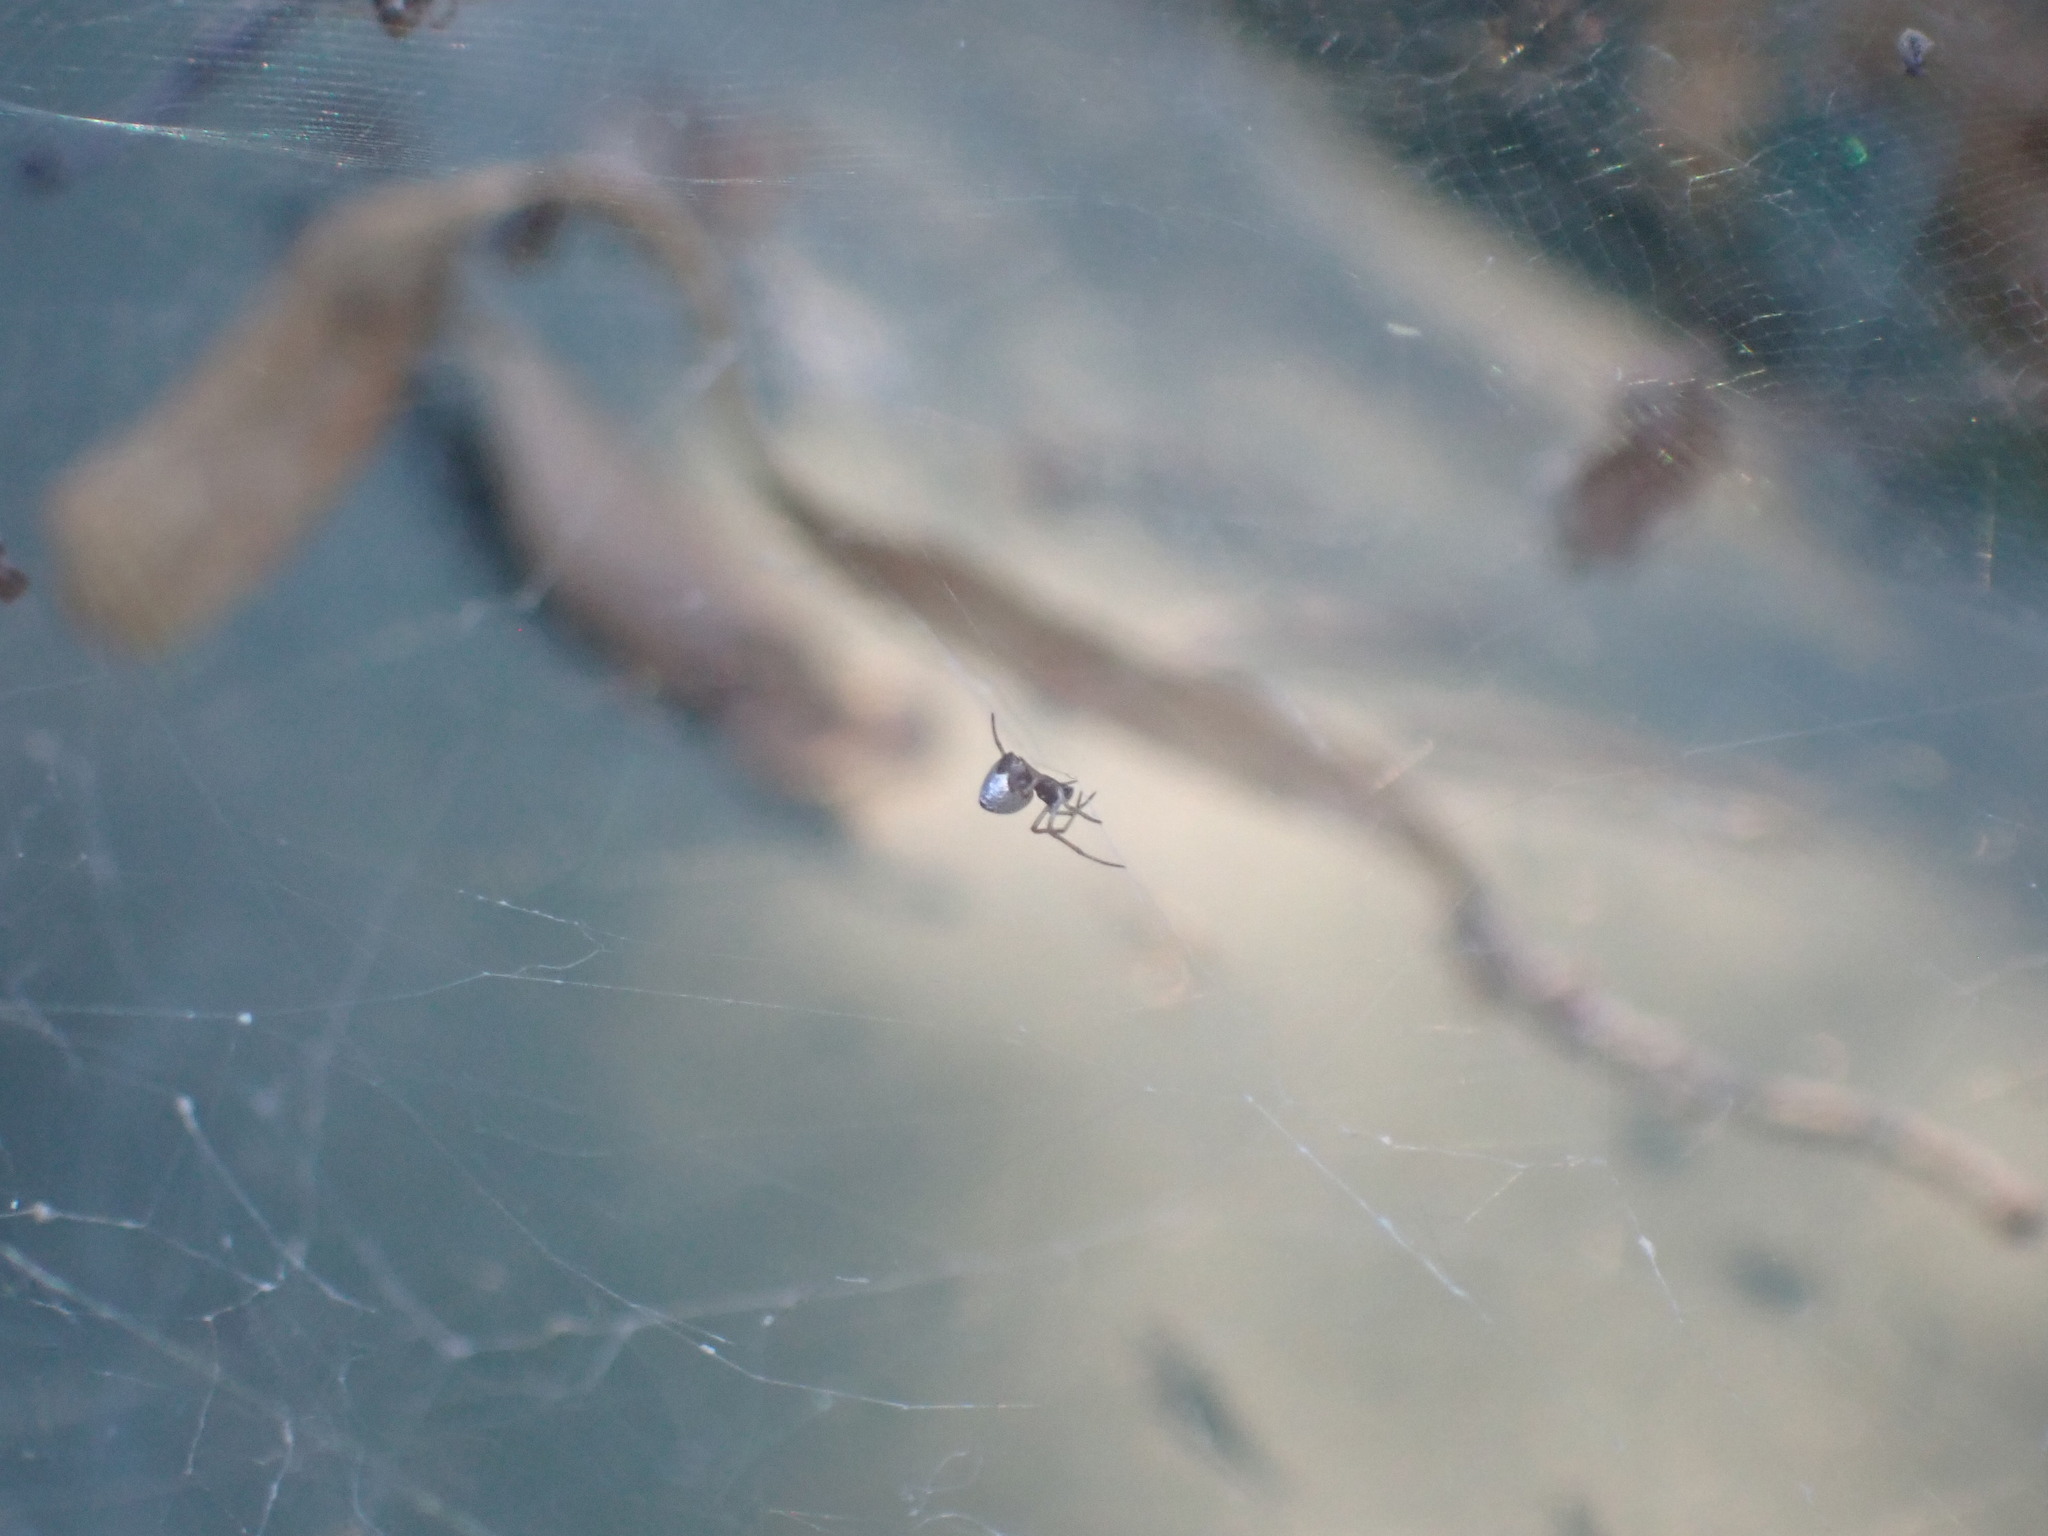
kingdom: Animalia
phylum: Arthropoda
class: Arachnida
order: Araneae
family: Theridiidae
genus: Argyrodes
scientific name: Argyrodes argyrodes
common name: Dewdrop spider
